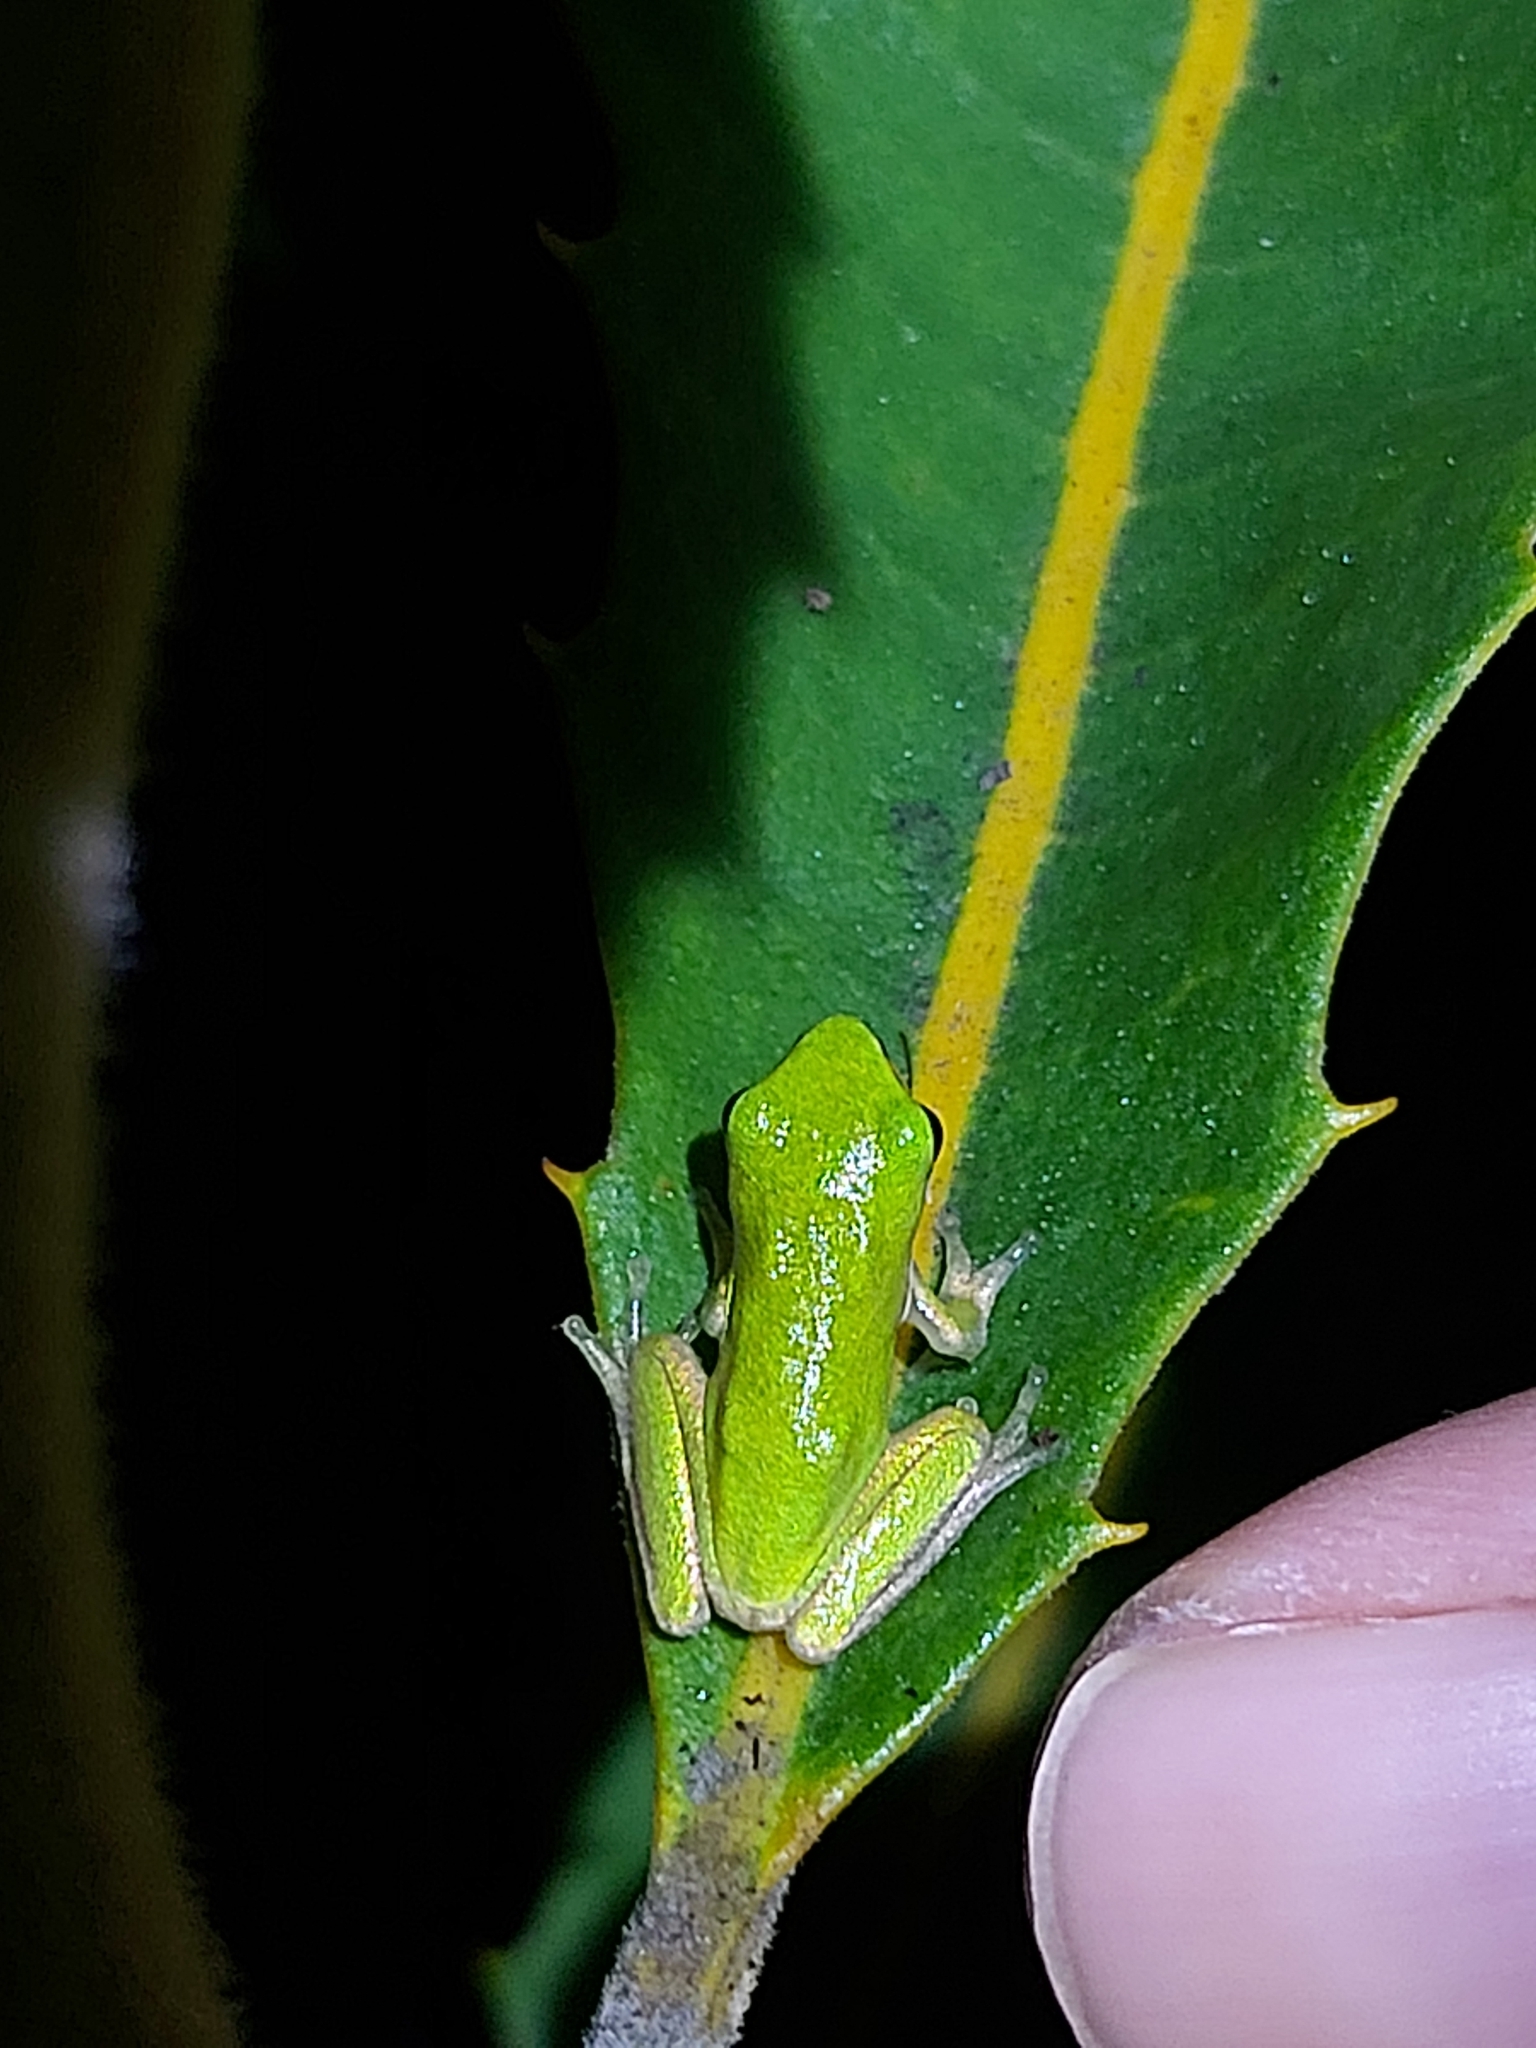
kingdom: Animalia
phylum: Chordata
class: Amphibia
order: Anura
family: Pelodryadidae
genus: Litoria
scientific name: Litoria fallax
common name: Eastern dwarf treefrog
